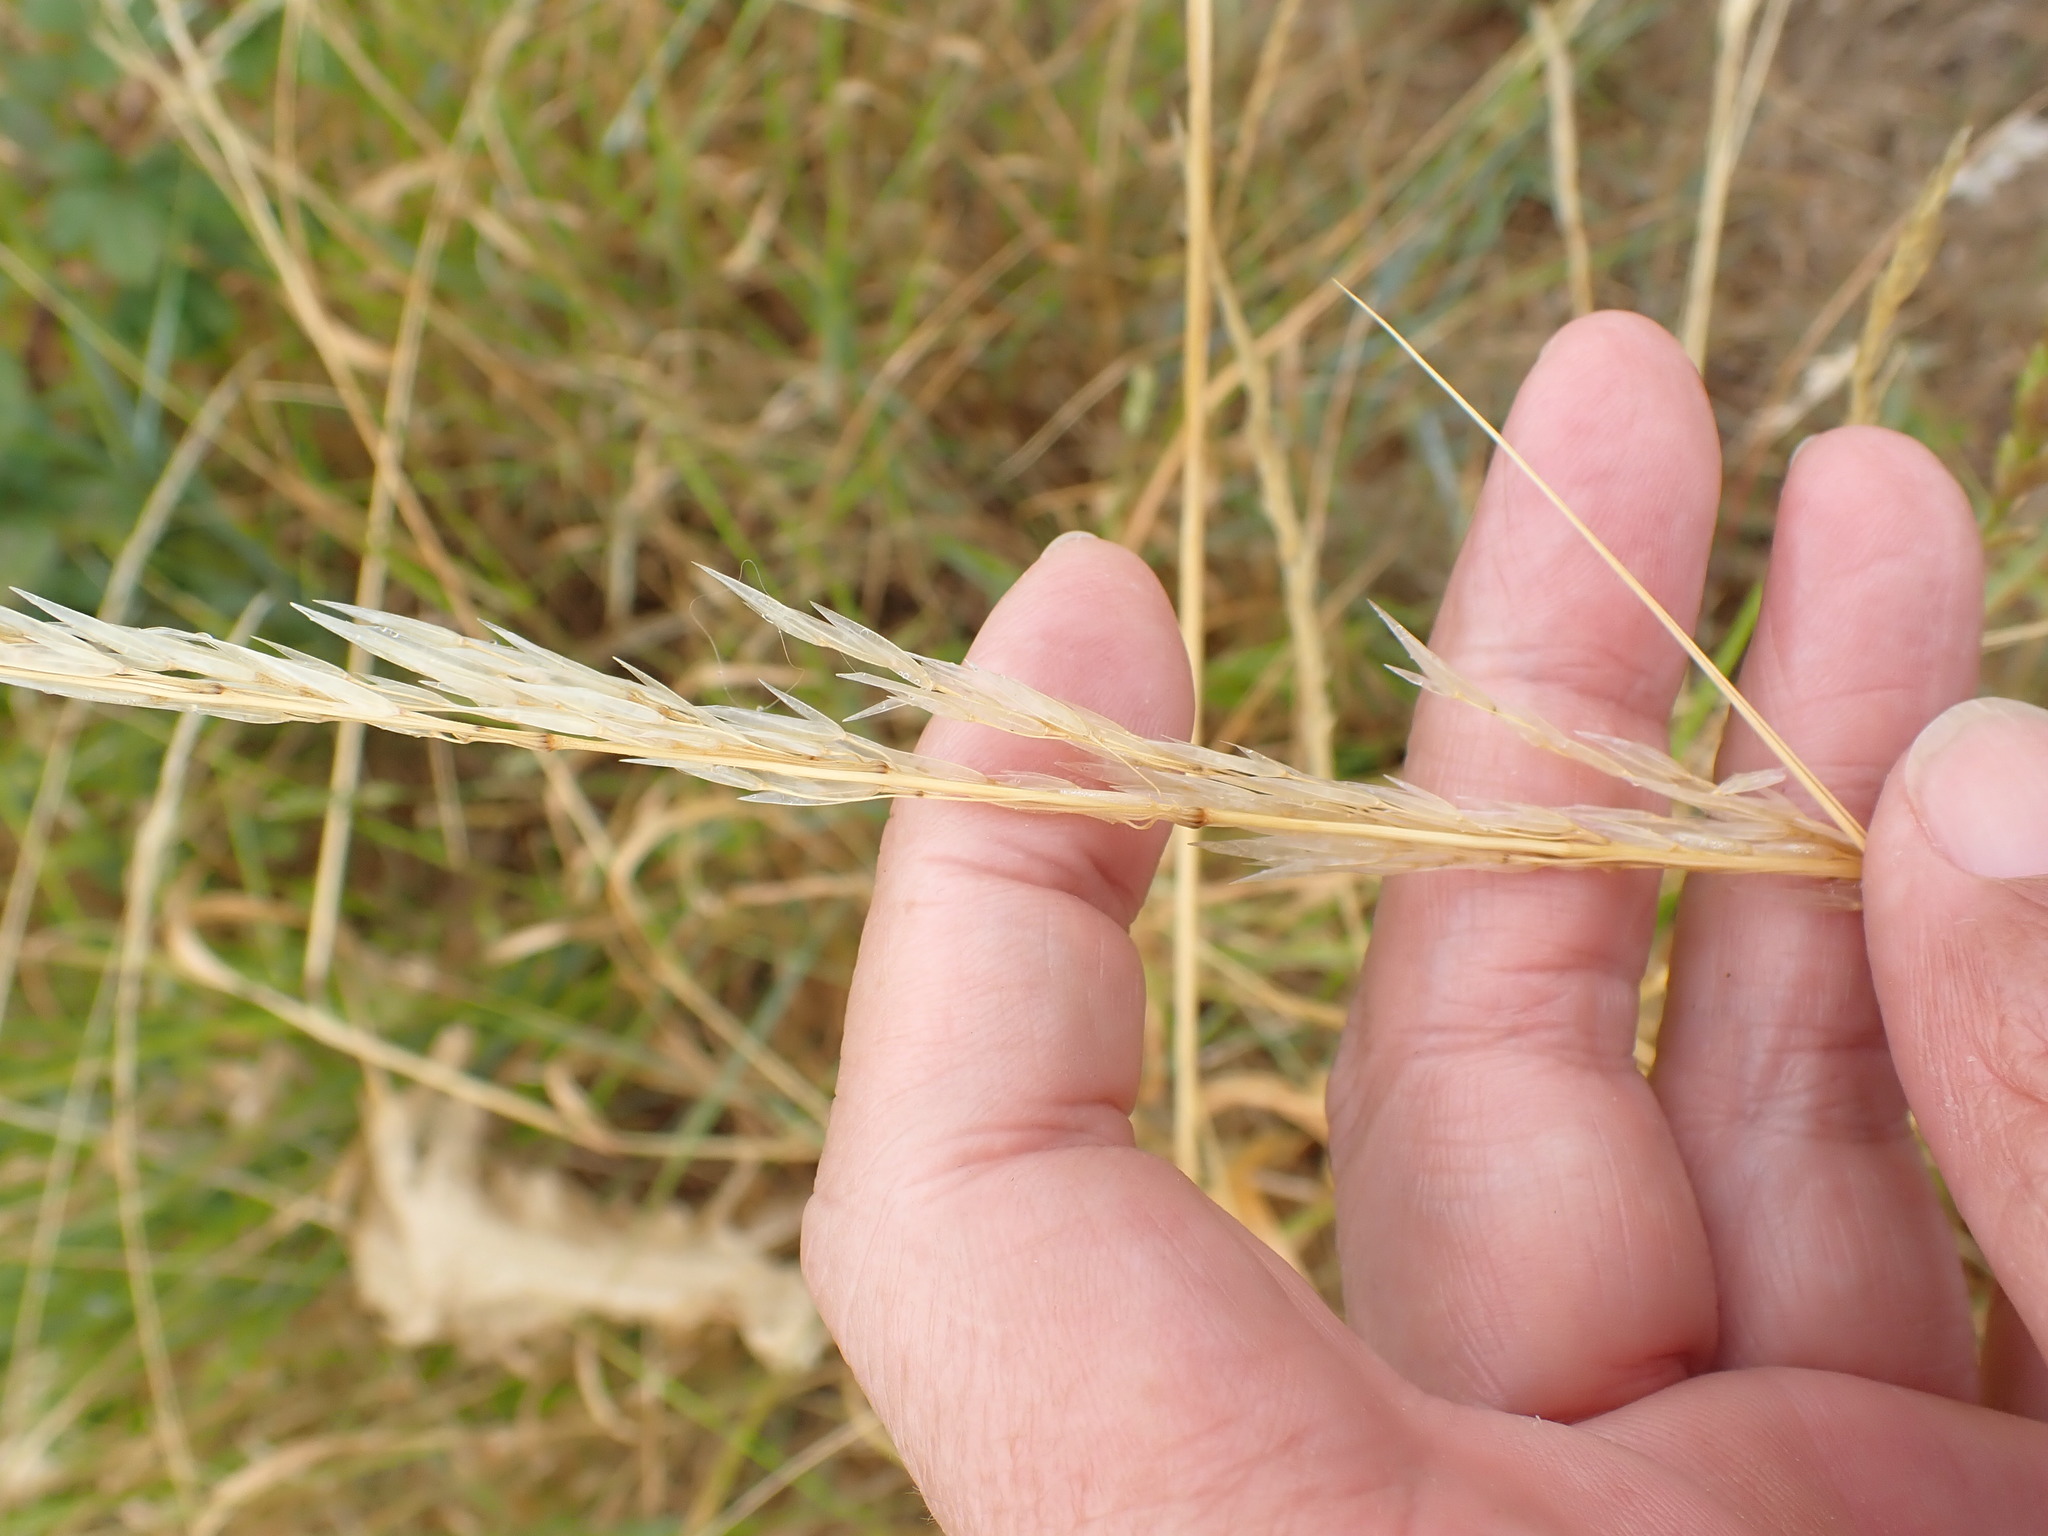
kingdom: Plantae
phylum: Tracheophyta
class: Liliopsida
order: Poales
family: Poaceae
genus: Arrhenatherum
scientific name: Arrhenatherum elatius
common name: Tall oatgrass
